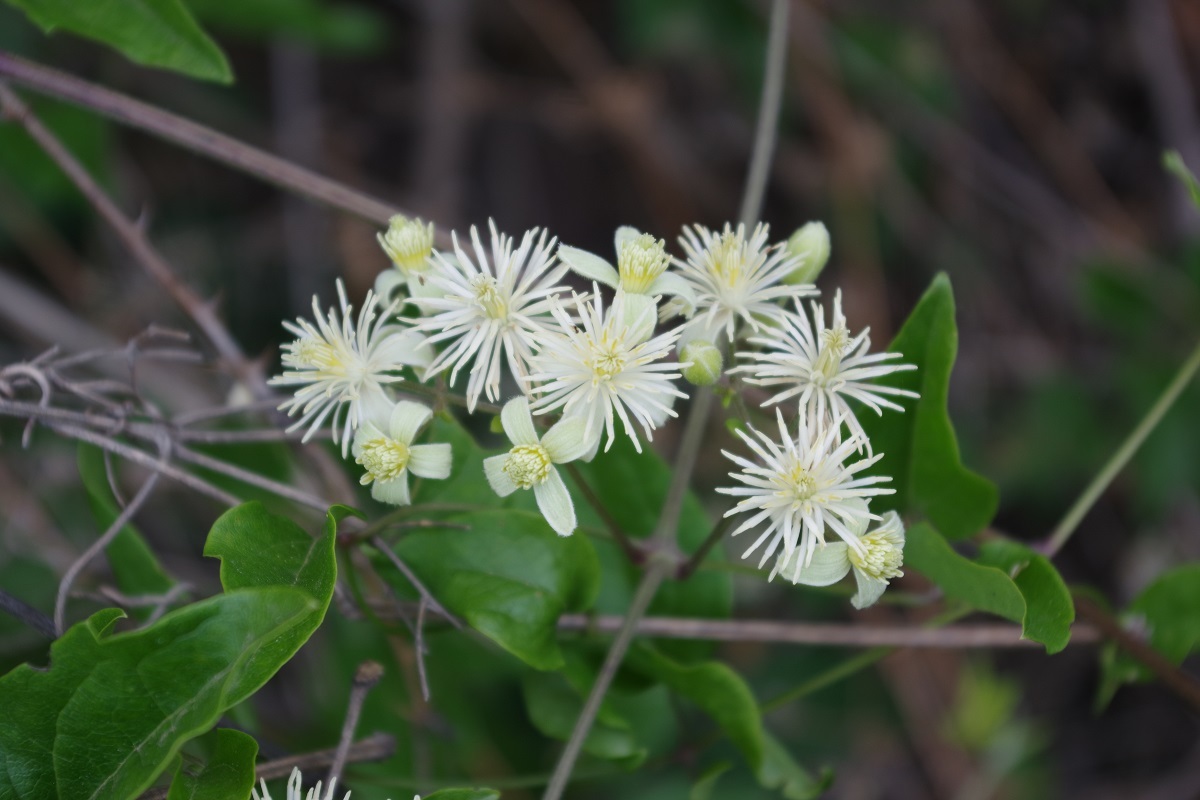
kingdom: Plantae
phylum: Tracheophyta
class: Magnoliopsida
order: Ranunculales
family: Ranunculaceae
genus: Clematis
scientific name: Clematis vitalba
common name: Evergreen clematis
